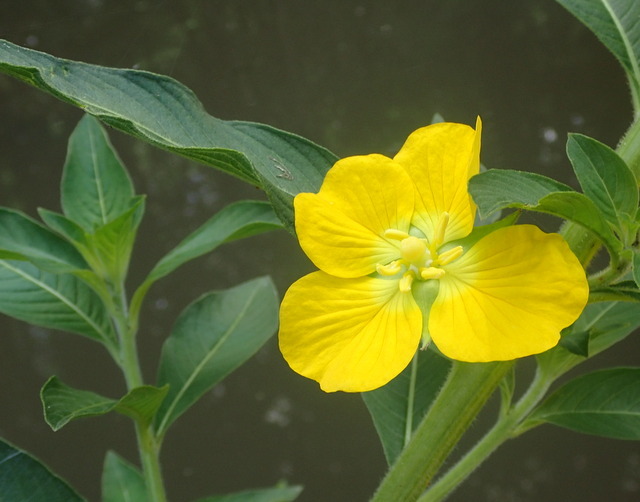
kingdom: Plantae
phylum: Tracheophyta
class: Magnoliopsida
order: Myrtales
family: Onagraceae
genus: Ludwigia
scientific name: Ludwigia peruviana
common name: Peruvian primrose-willow
